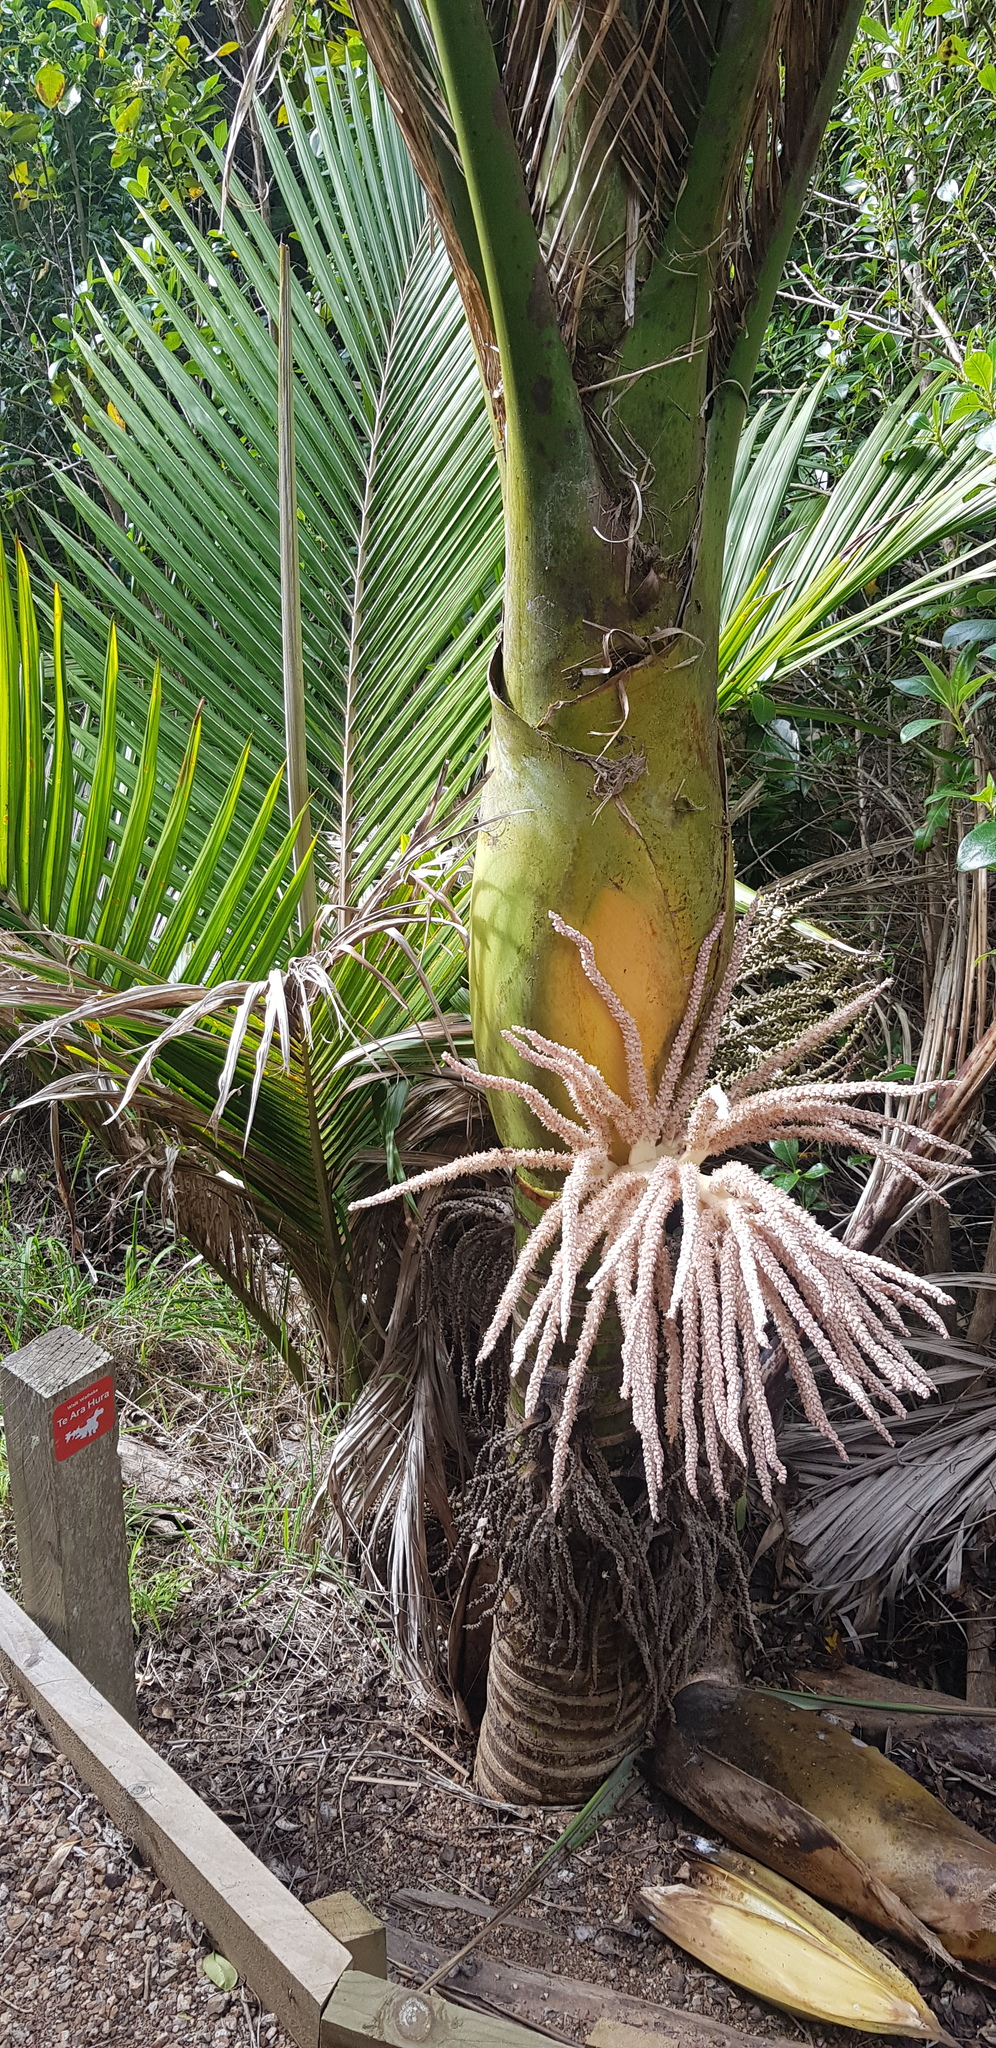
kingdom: Plantae
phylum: Tracheophyta
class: Liliopsida
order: Arecales
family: Arecaceae
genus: Rhopalostylis
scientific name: Rhopalostylis sapida
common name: Feather-duster palm
